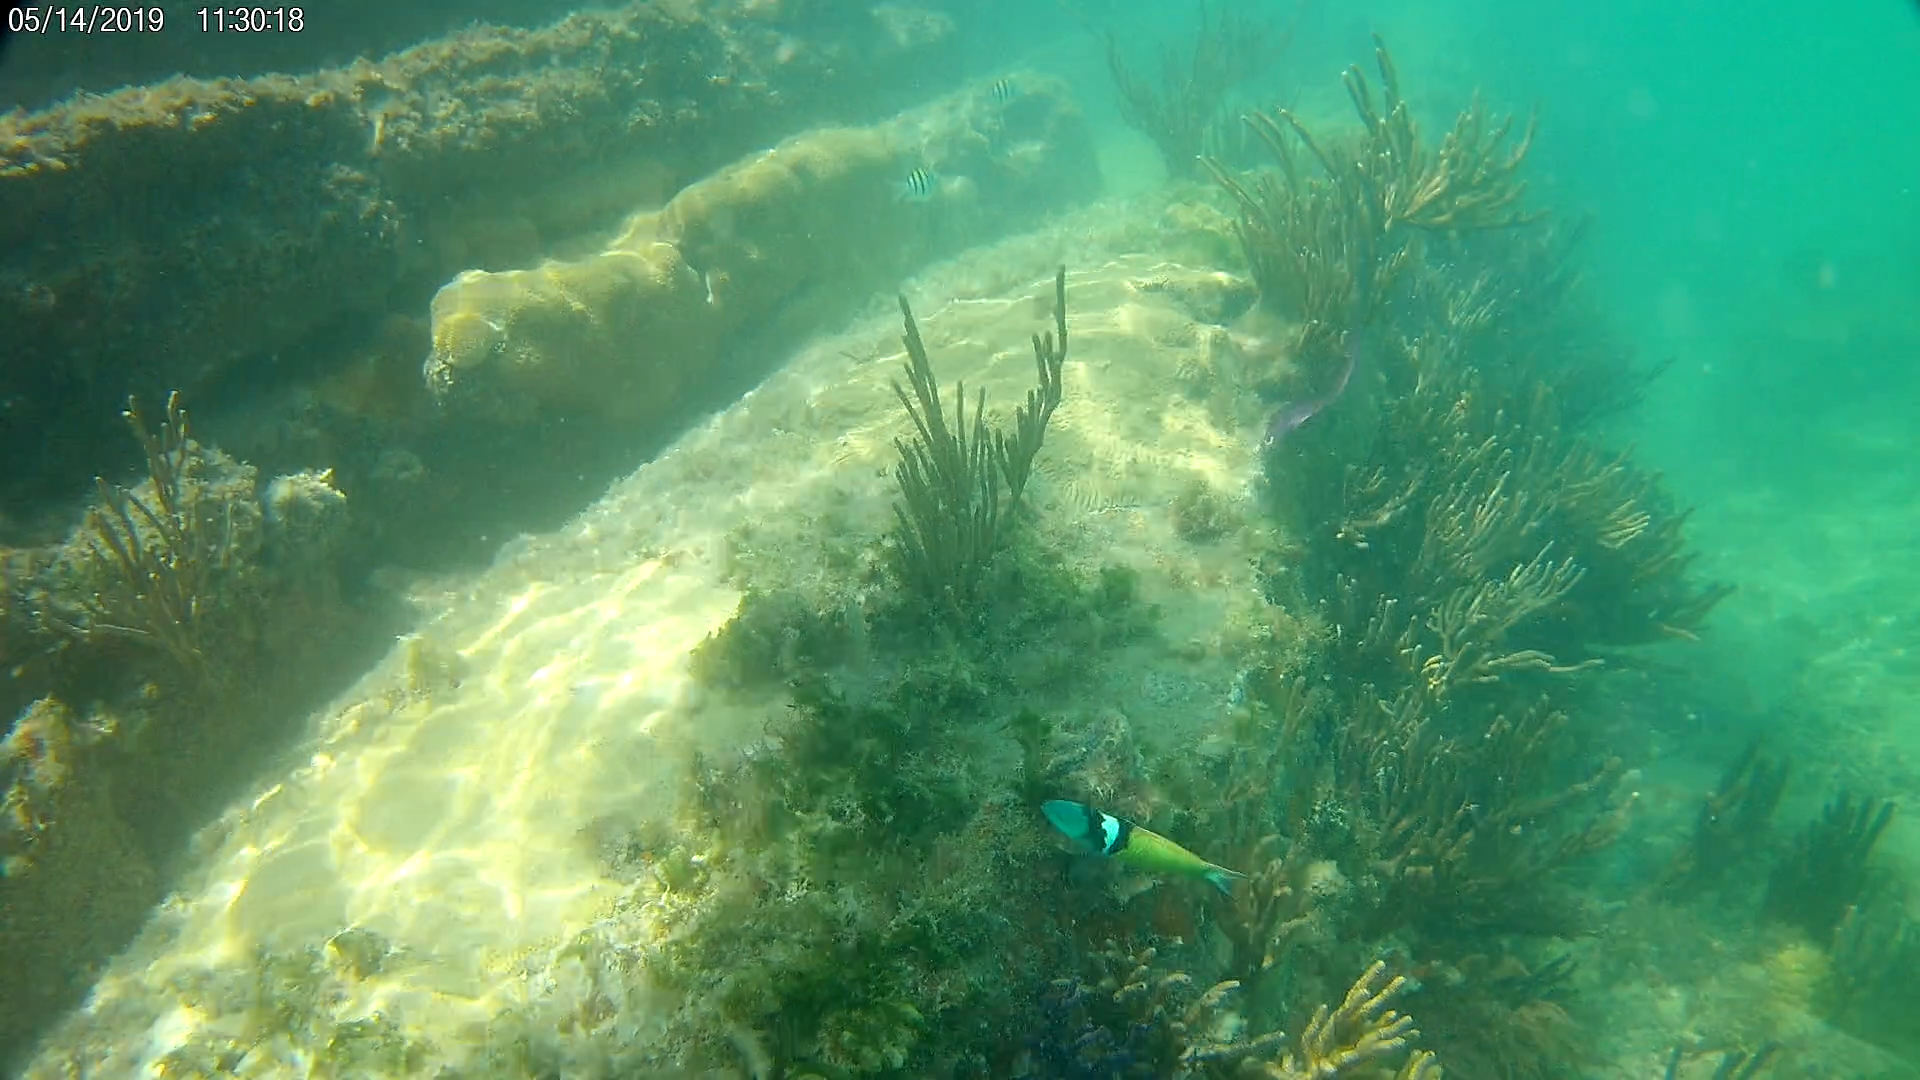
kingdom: Animalia
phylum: Chordata
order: Perciformes
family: Labridae
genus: Thalassoma
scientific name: Thalassoma bifasciatum
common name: Bluehead wrasse
